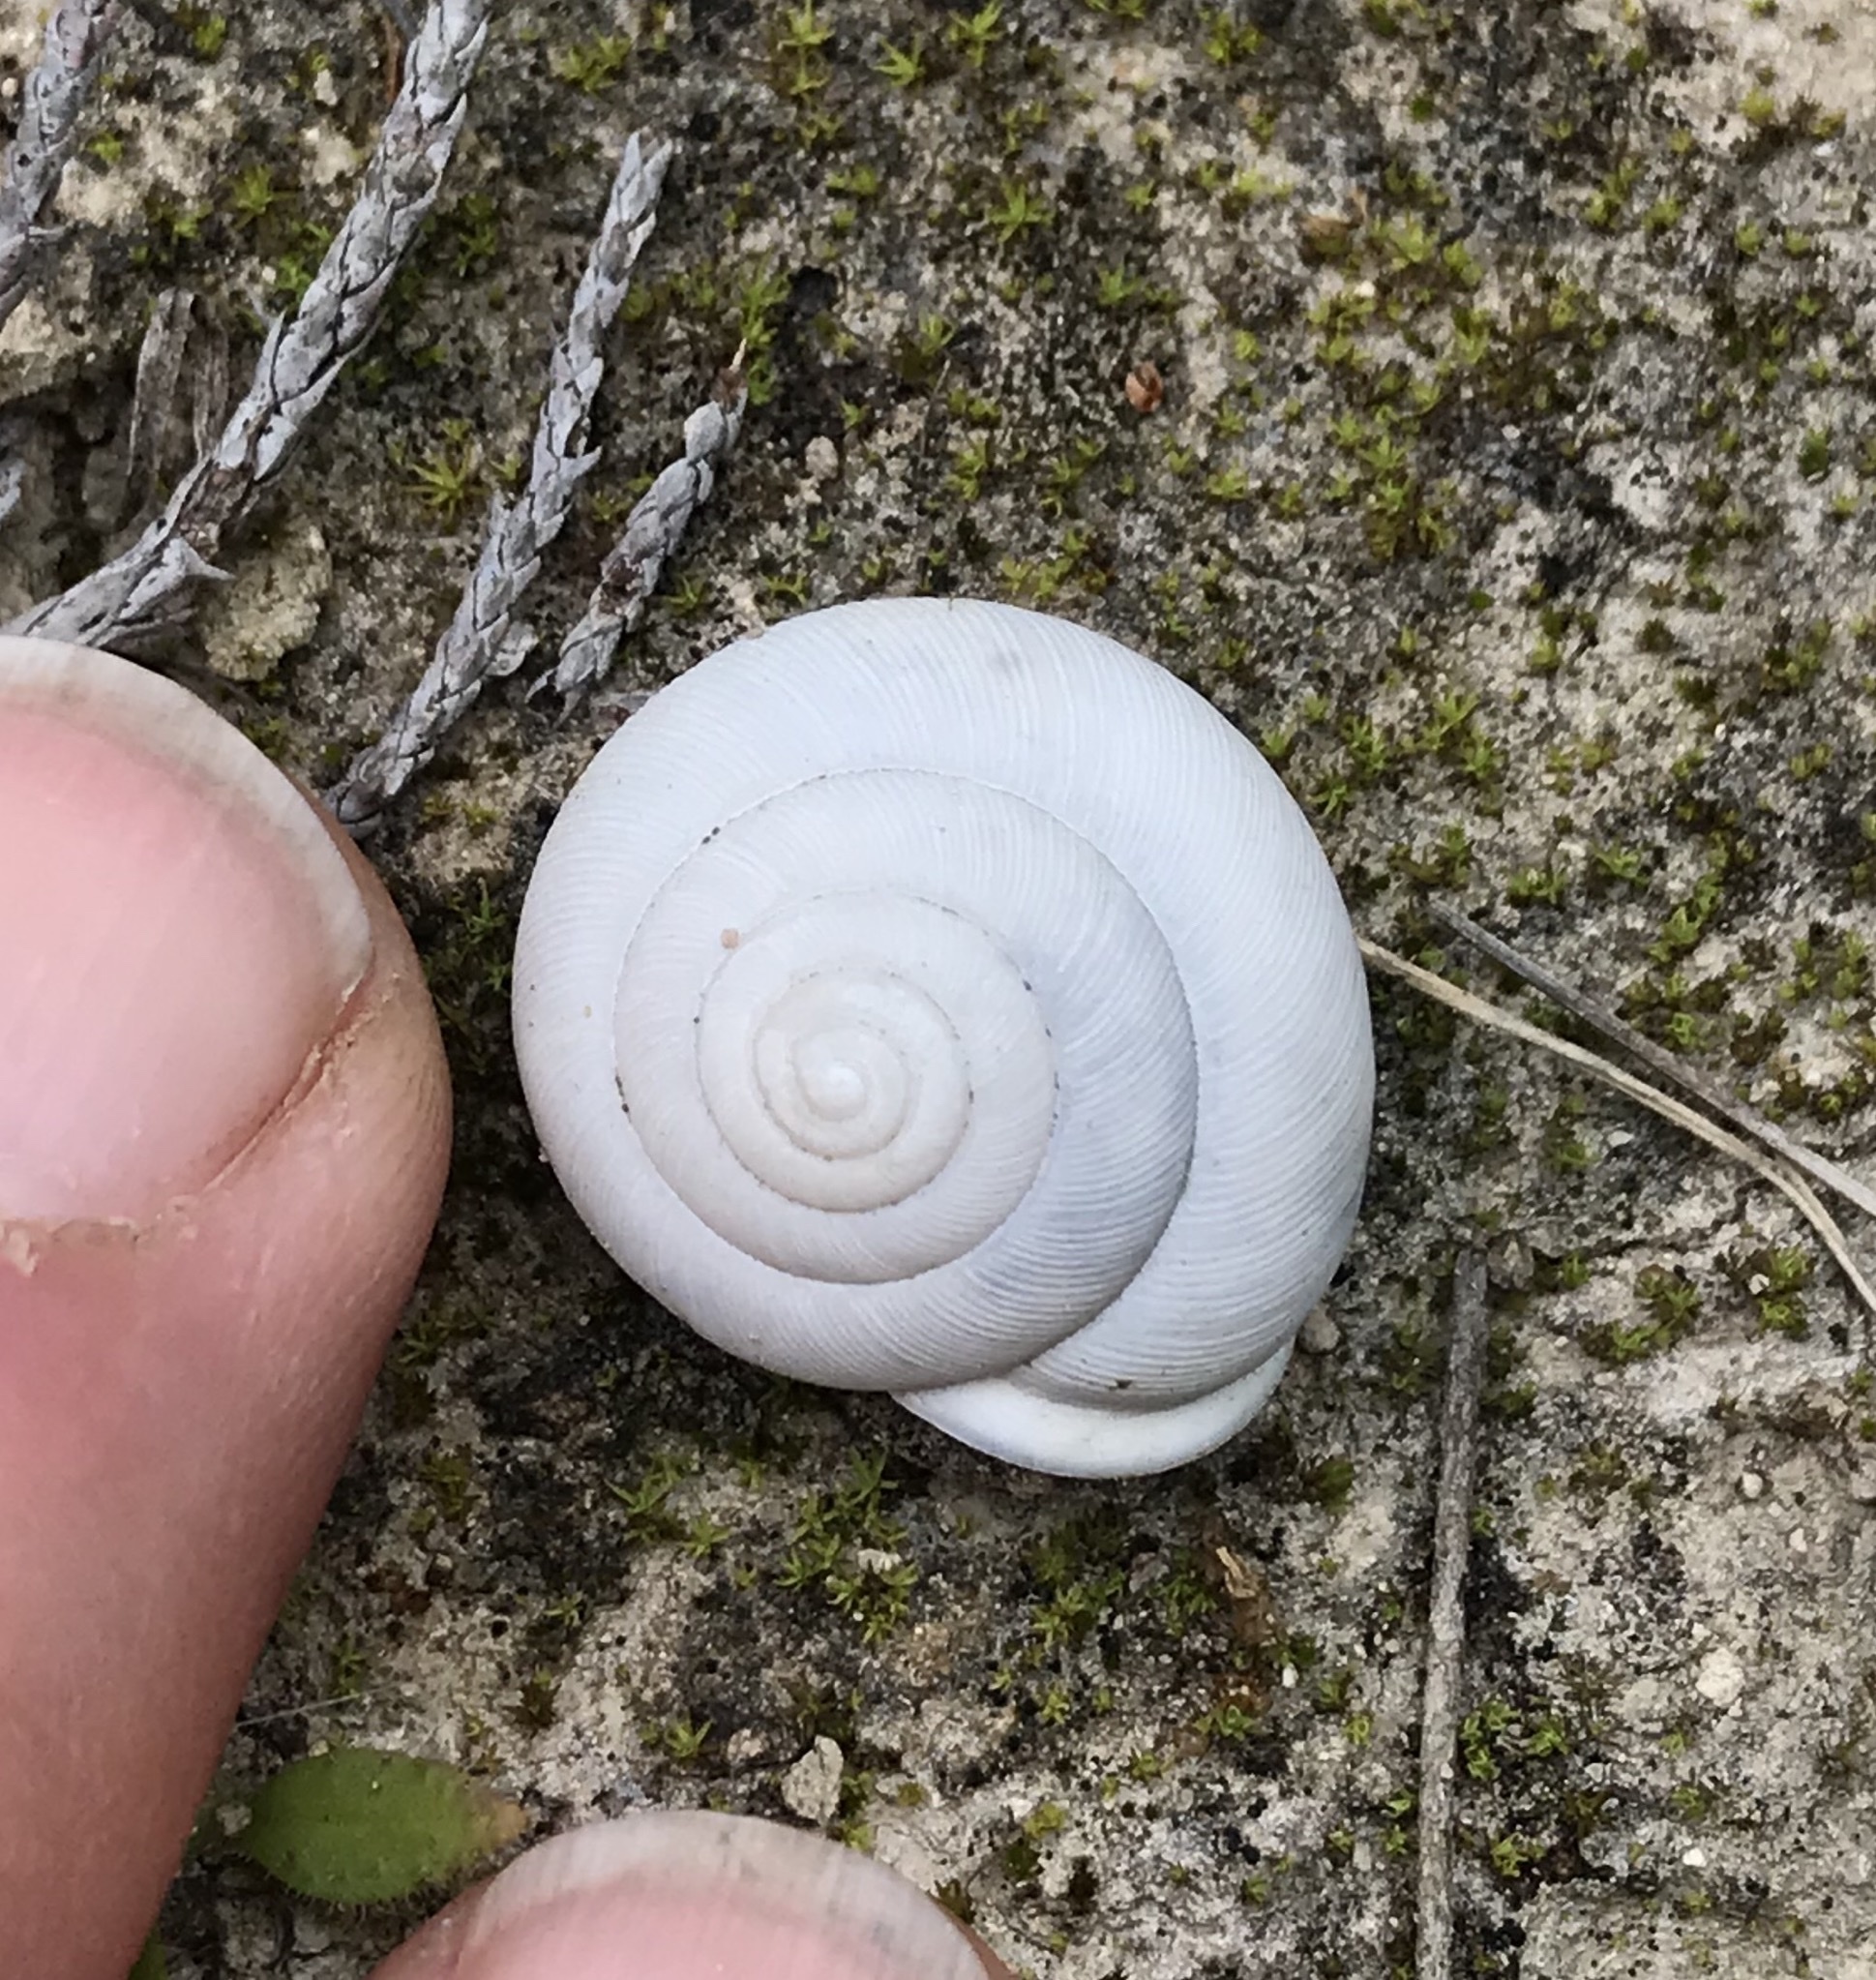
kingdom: Animalia
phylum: Mollusca
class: Gastropoda
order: Stylommatophora
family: Polygyridae
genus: Patera
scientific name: Patera roemeri
